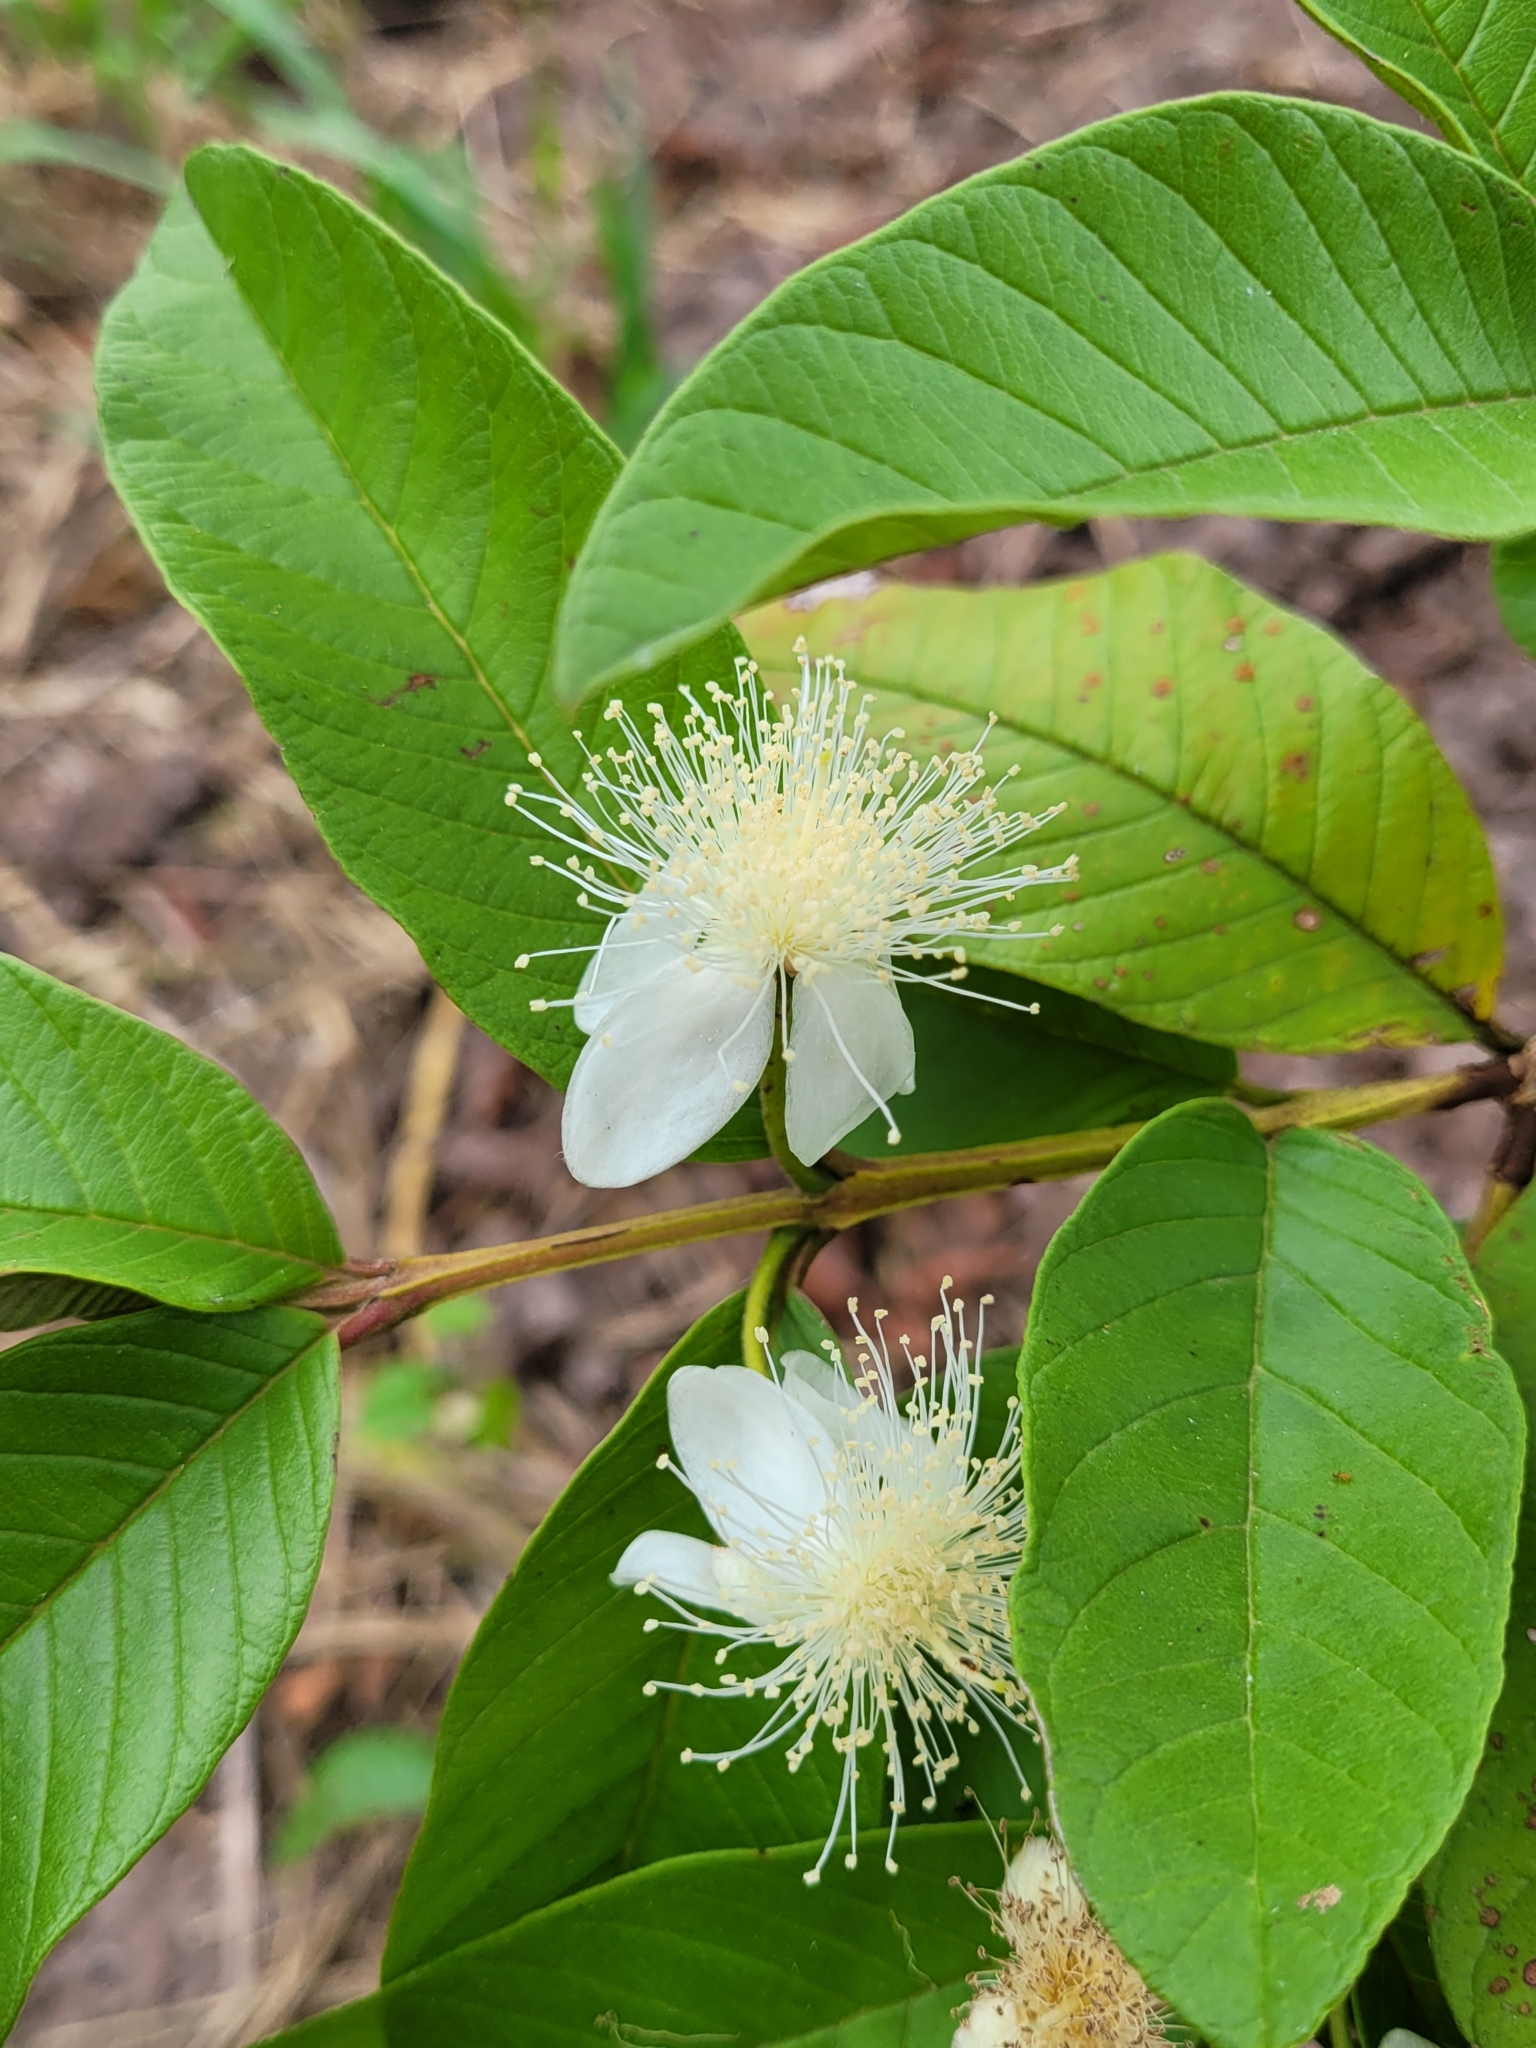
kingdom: Plantae
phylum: Tracheophyta
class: Magnoliopsida
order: Myrtales
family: Myrtaceae
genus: Psidium
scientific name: Psidium guajava
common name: Guava
